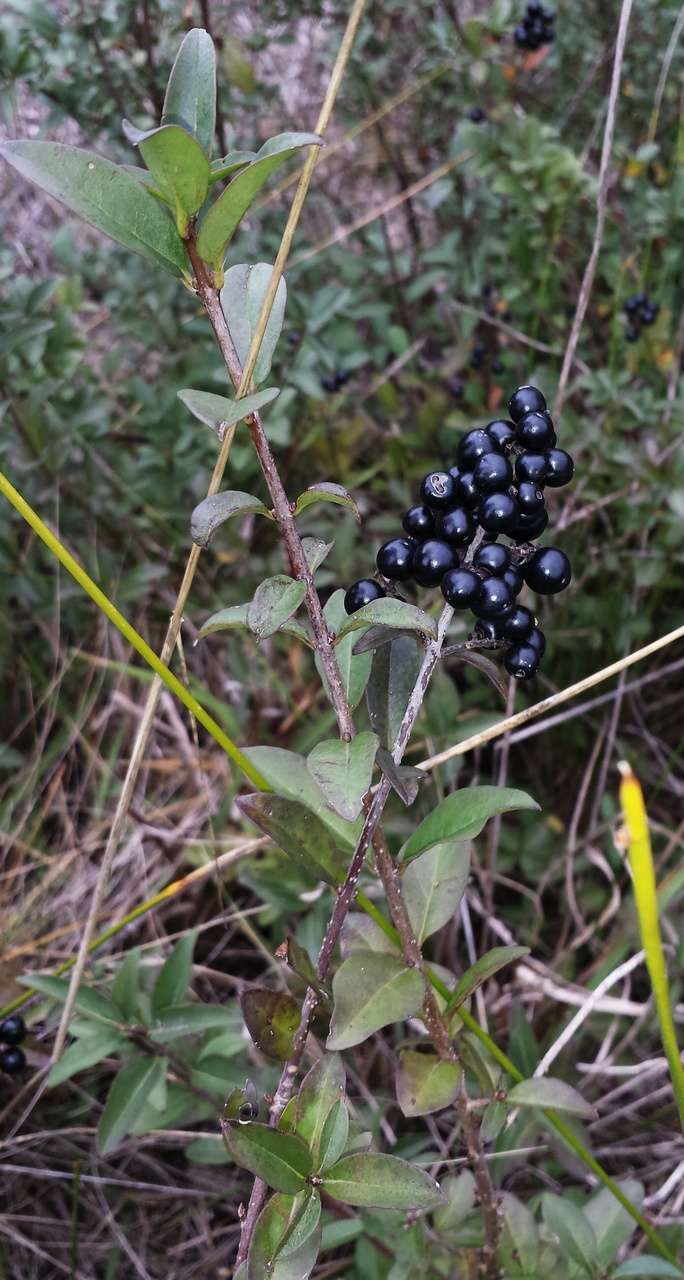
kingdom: Plantae
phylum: Tracheophyta
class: Magnoliopsida
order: Lamiales
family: Oleaceae
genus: Ligustrum
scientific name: Ligustrum vulgare
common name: Wild privet
